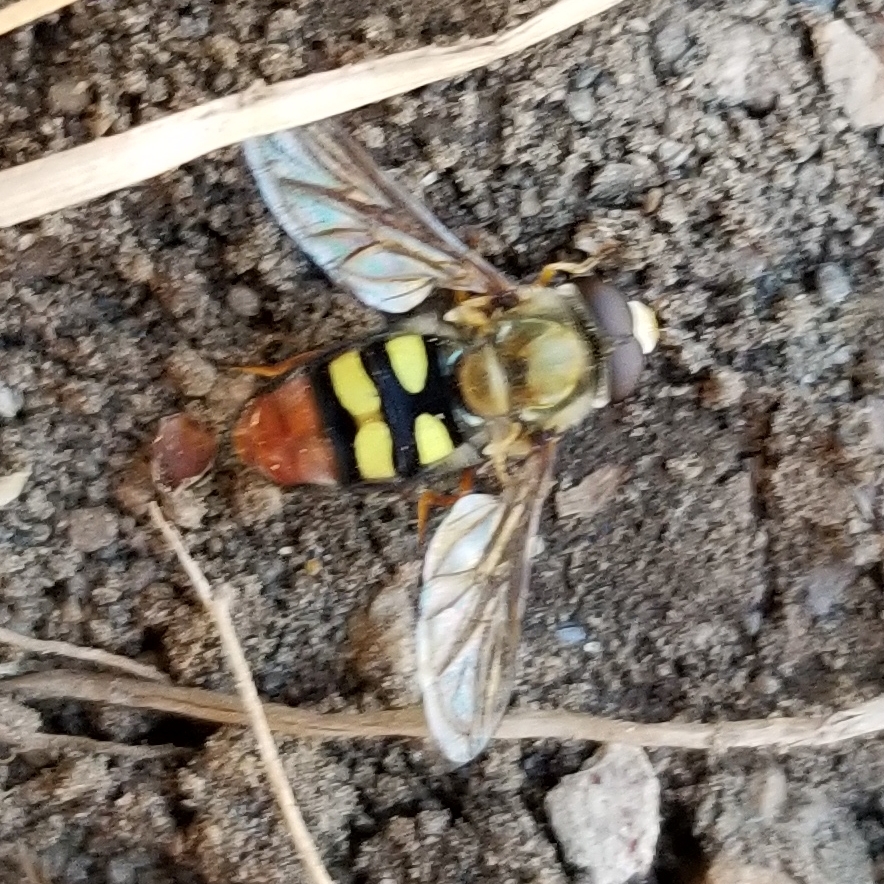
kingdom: Animalia
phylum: Arthropoda
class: Insecta
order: Diptera
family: Syrphidae
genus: Eupeodes
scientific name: Eupeodes snowi
